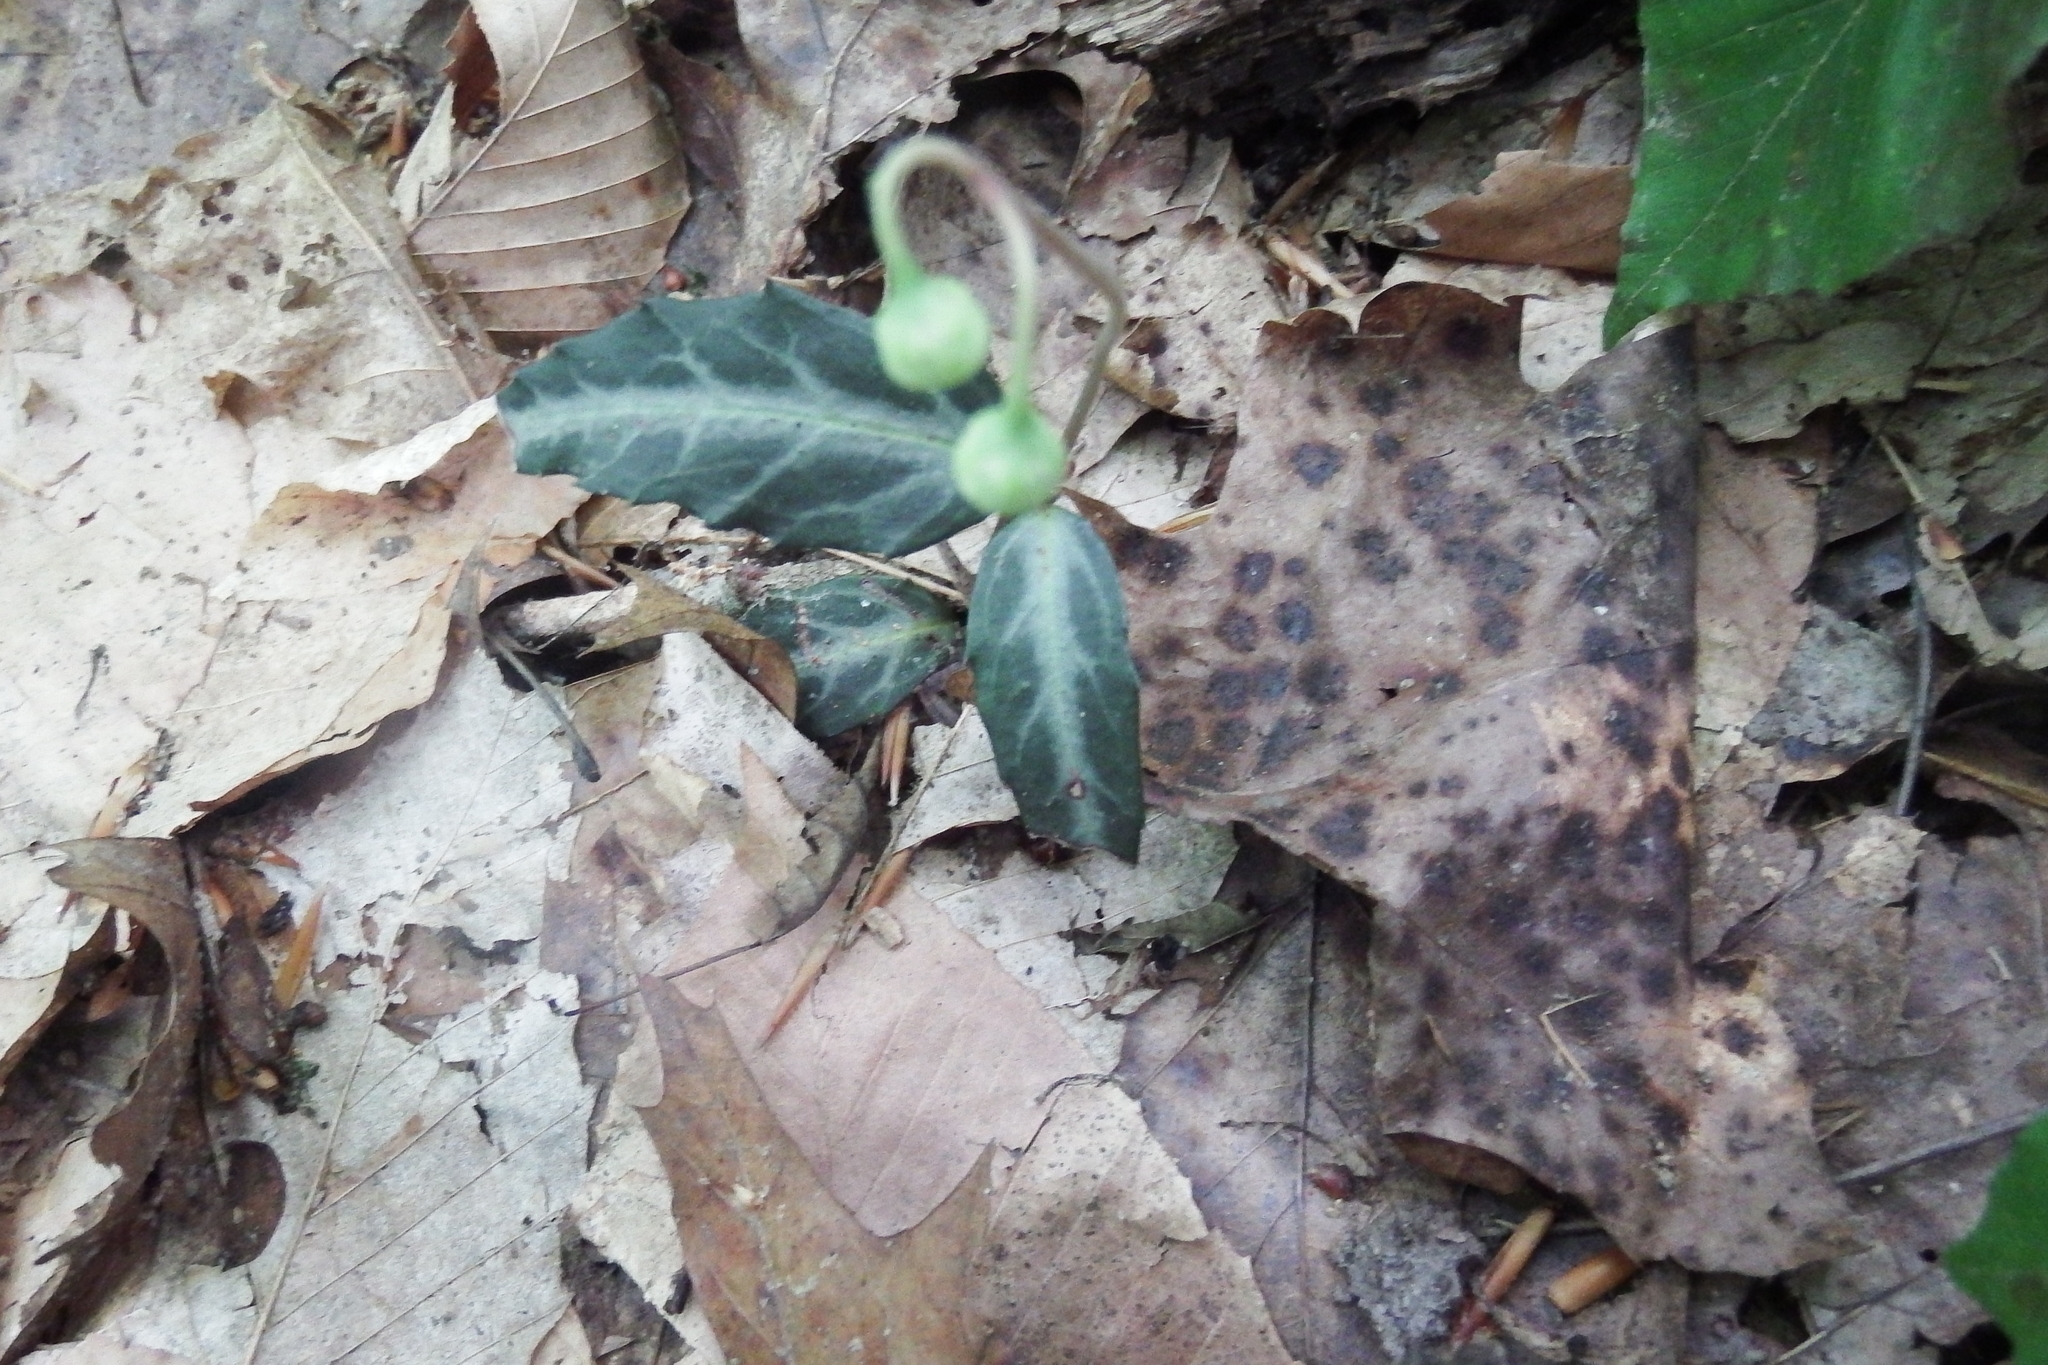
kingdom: Plantae
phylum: Tracheophyta
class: Magnoliopsida
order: Ericales
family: Ericaceae
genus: Chimaphila
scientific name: Chimaphila maculata
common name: Spotted pipsissewa
